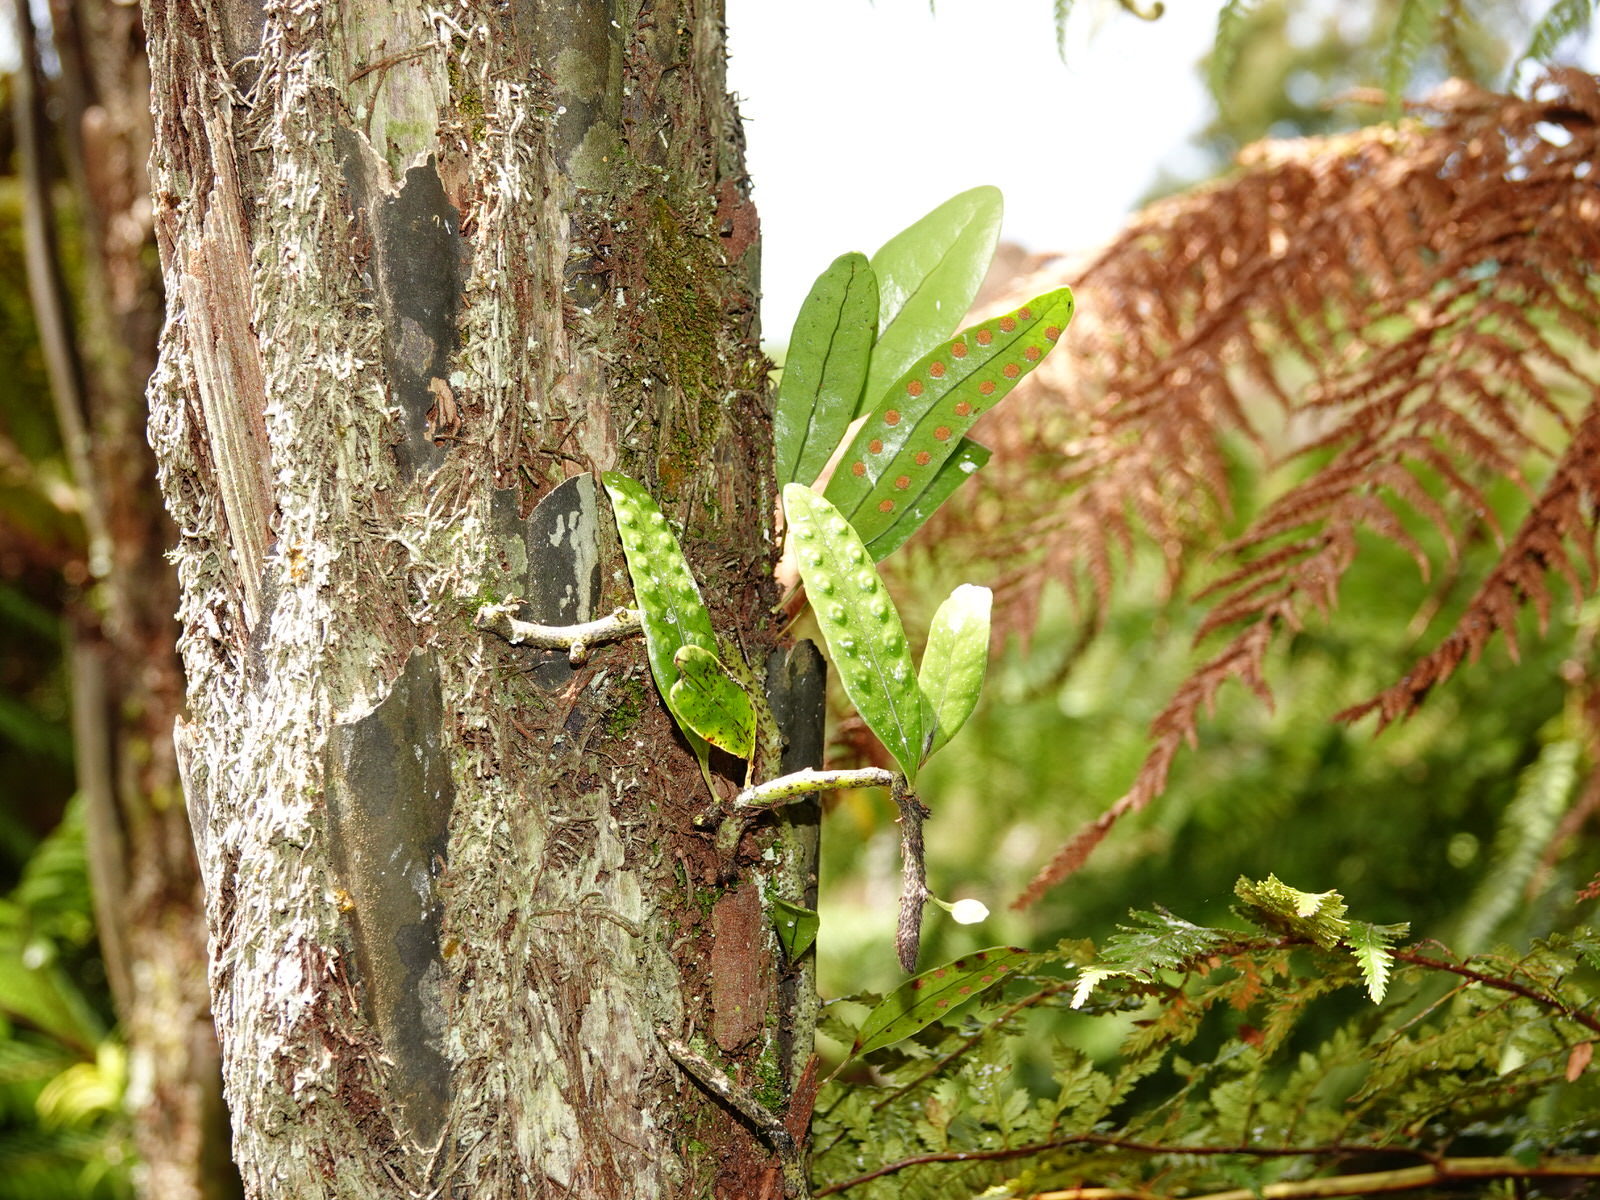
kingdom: Plantae
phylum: Tracheophyta
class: Polypodiopsida
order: Polypodiales
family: Polypodiaceae
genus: Lecanopteris
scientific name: Lecanopteris pustulata
